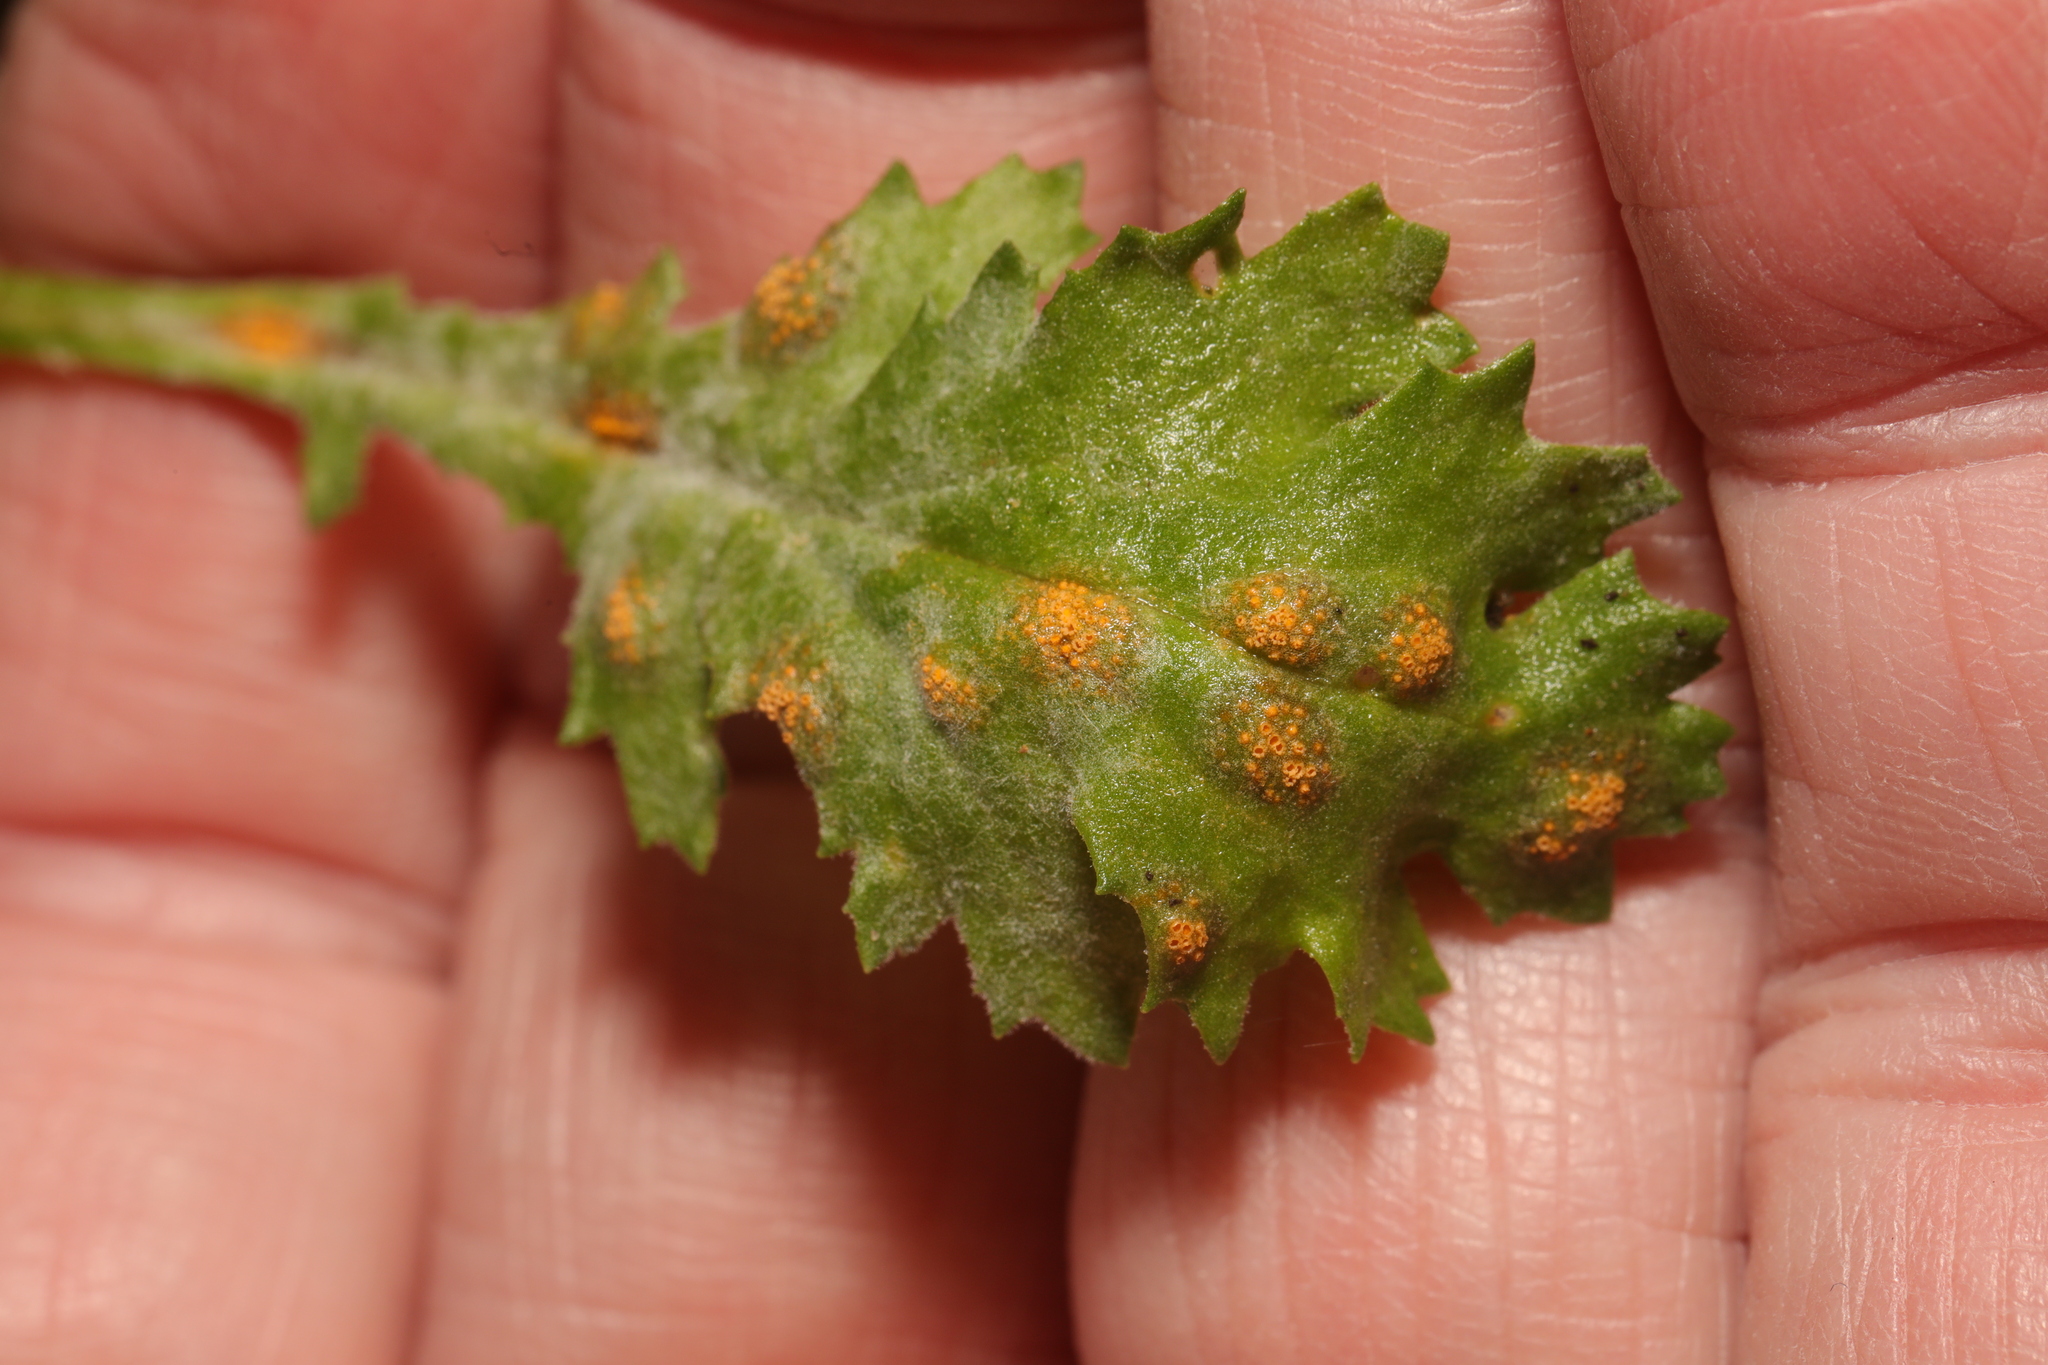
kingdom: Fungi
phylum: Basidiomycota
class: Pucciniomycetes
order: Pucciniales
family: Pucciniaceae
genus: Puccinia
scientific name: Puccinia lagenophorae
